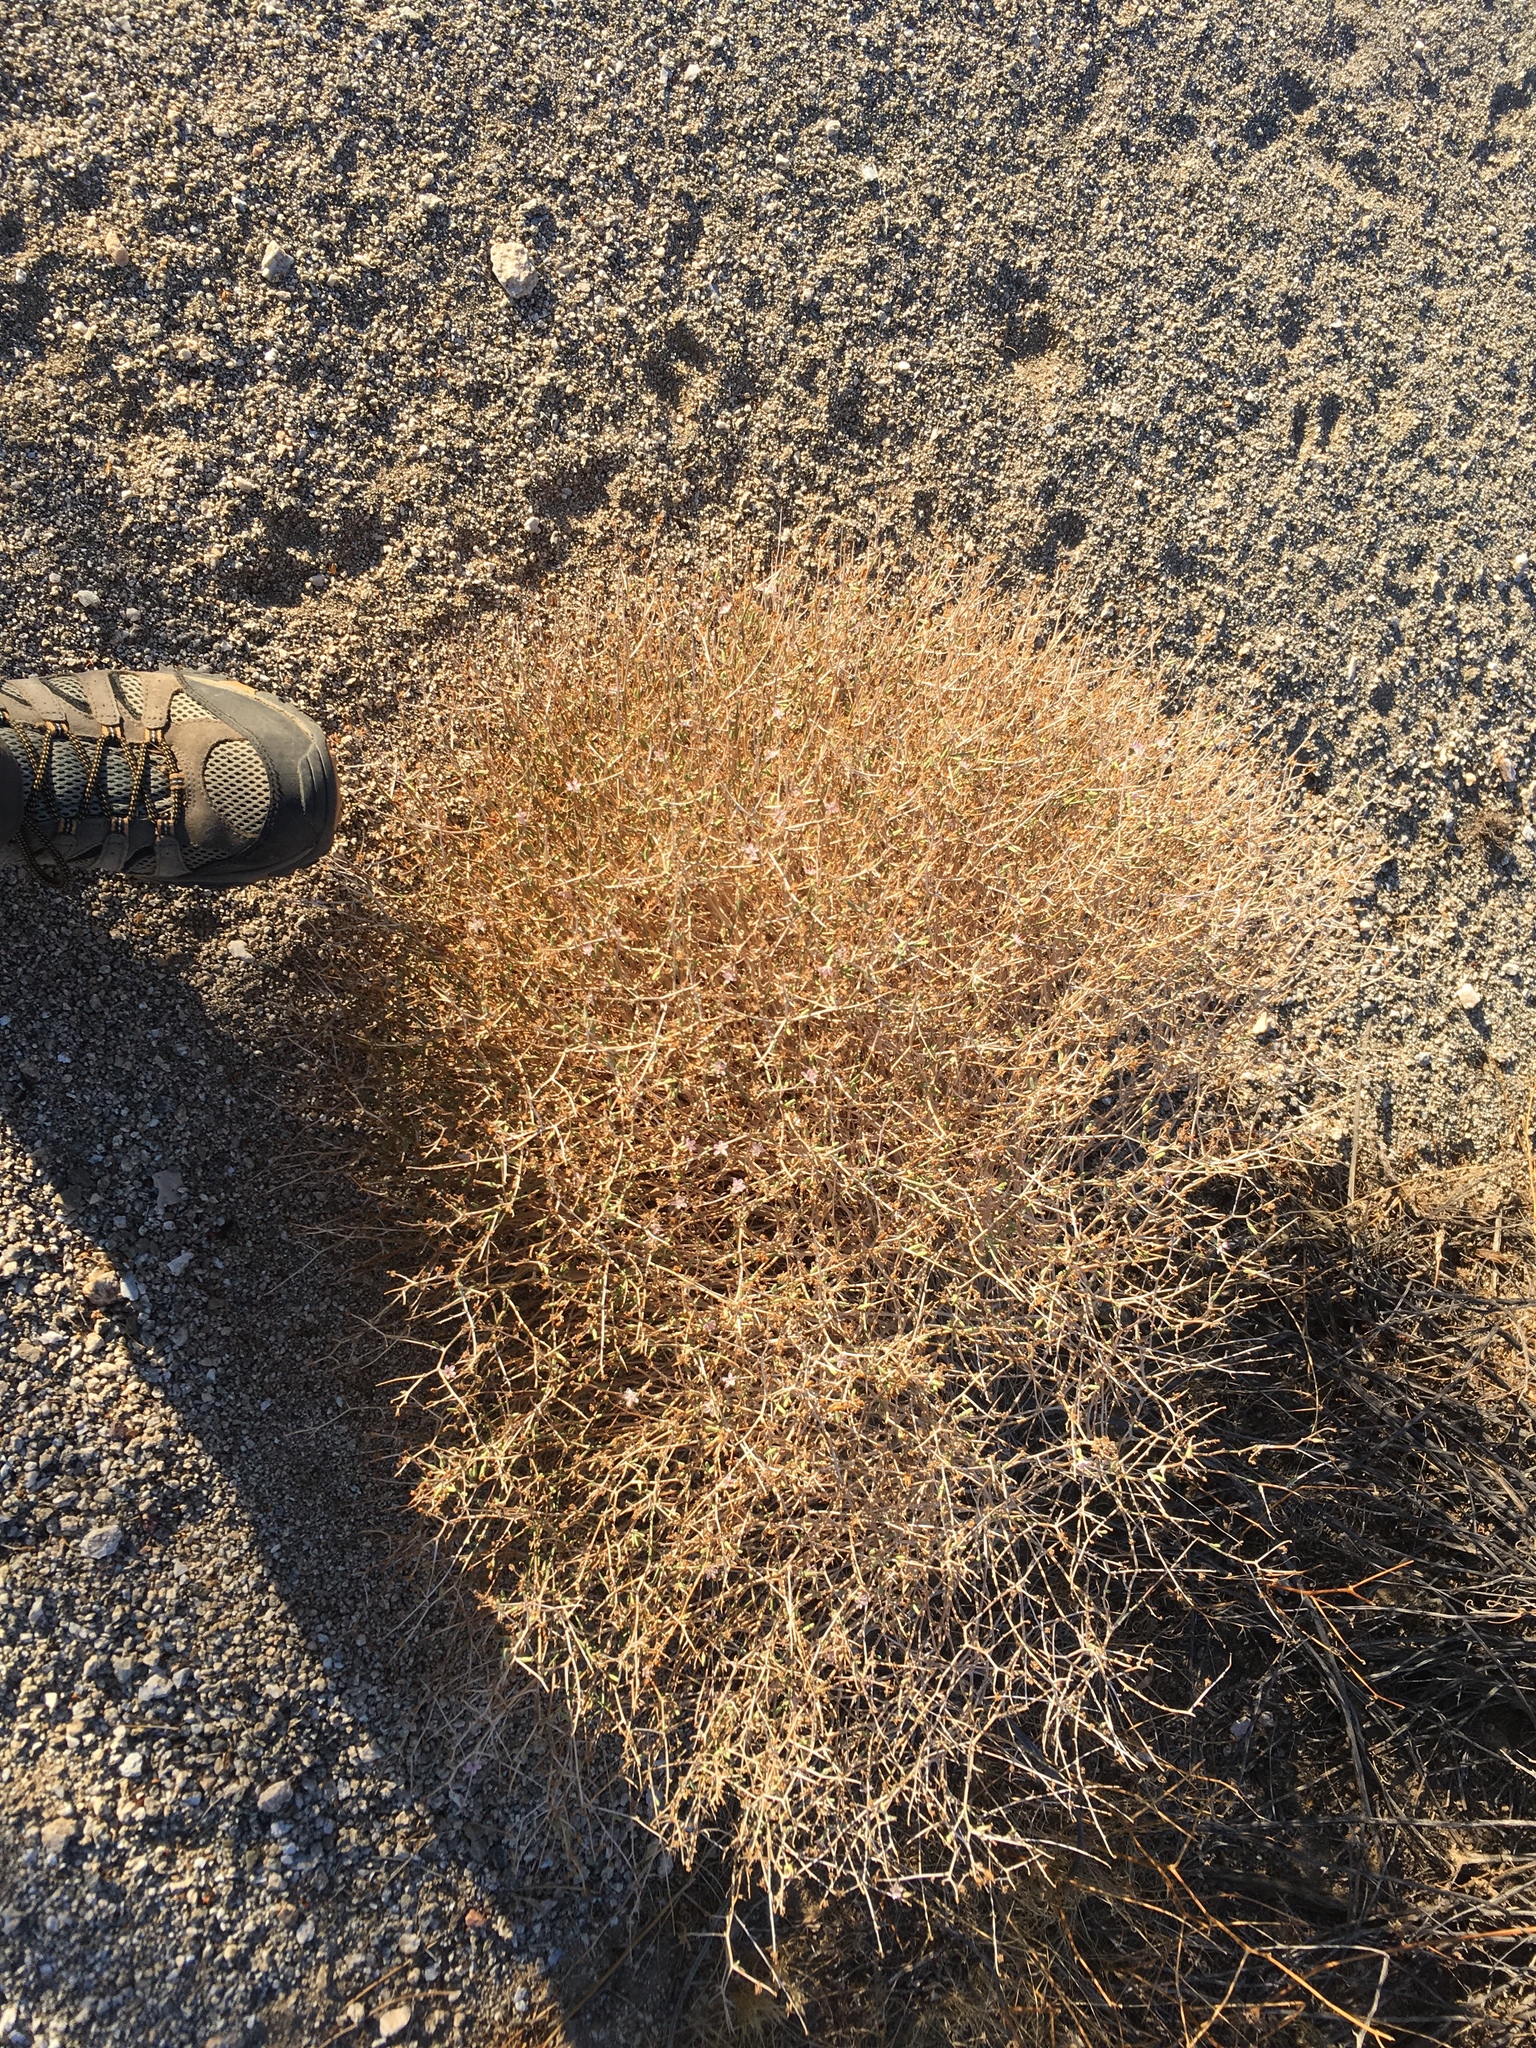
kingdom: Plantae
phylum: Tracheophyta
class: Magnoliopsida
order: Asterales
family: Asteraceae
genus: Stephanomeria
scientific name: Stephanomeria pauciflora
